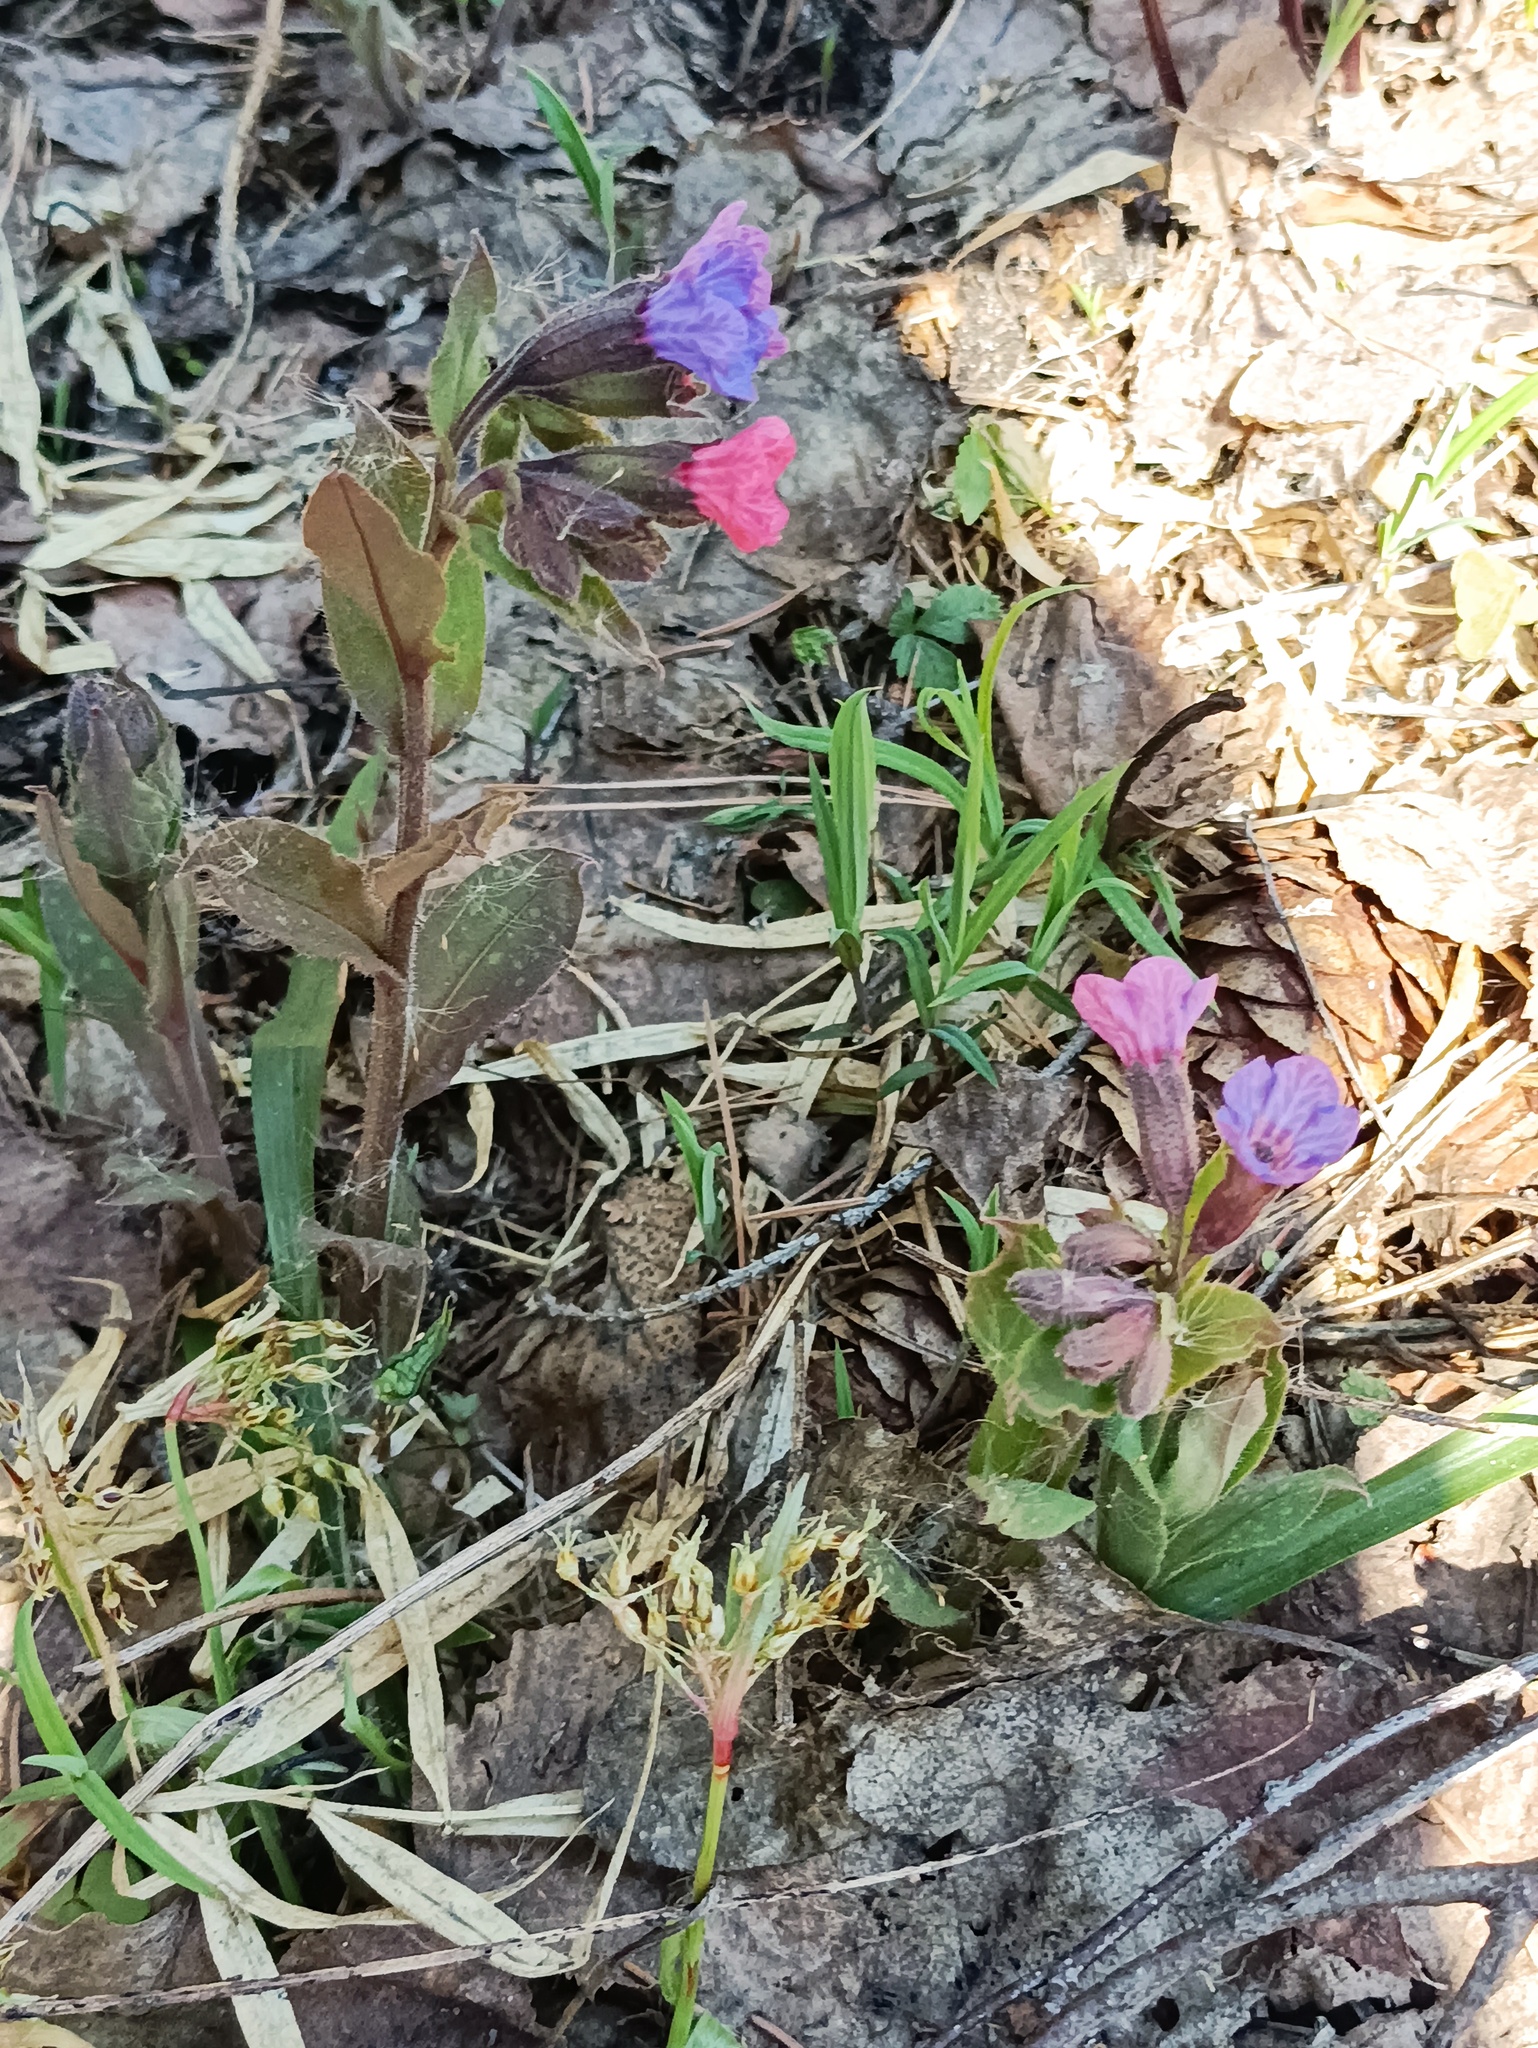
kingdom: Plantae
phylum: Tracheophyta
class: Magnoliopsida
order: Boraginales
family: Boraginaceae
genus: Pulmonaria
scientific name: Pulmonaria obscura
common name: Suffolk lungwort
